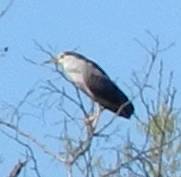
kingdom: Animalia
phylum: Chordata
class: Aves
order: Pelecaniformes
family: Ardeidae
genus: Nycticorax
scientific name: Nycticorax nycticorax
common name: Black-crowned night heron
